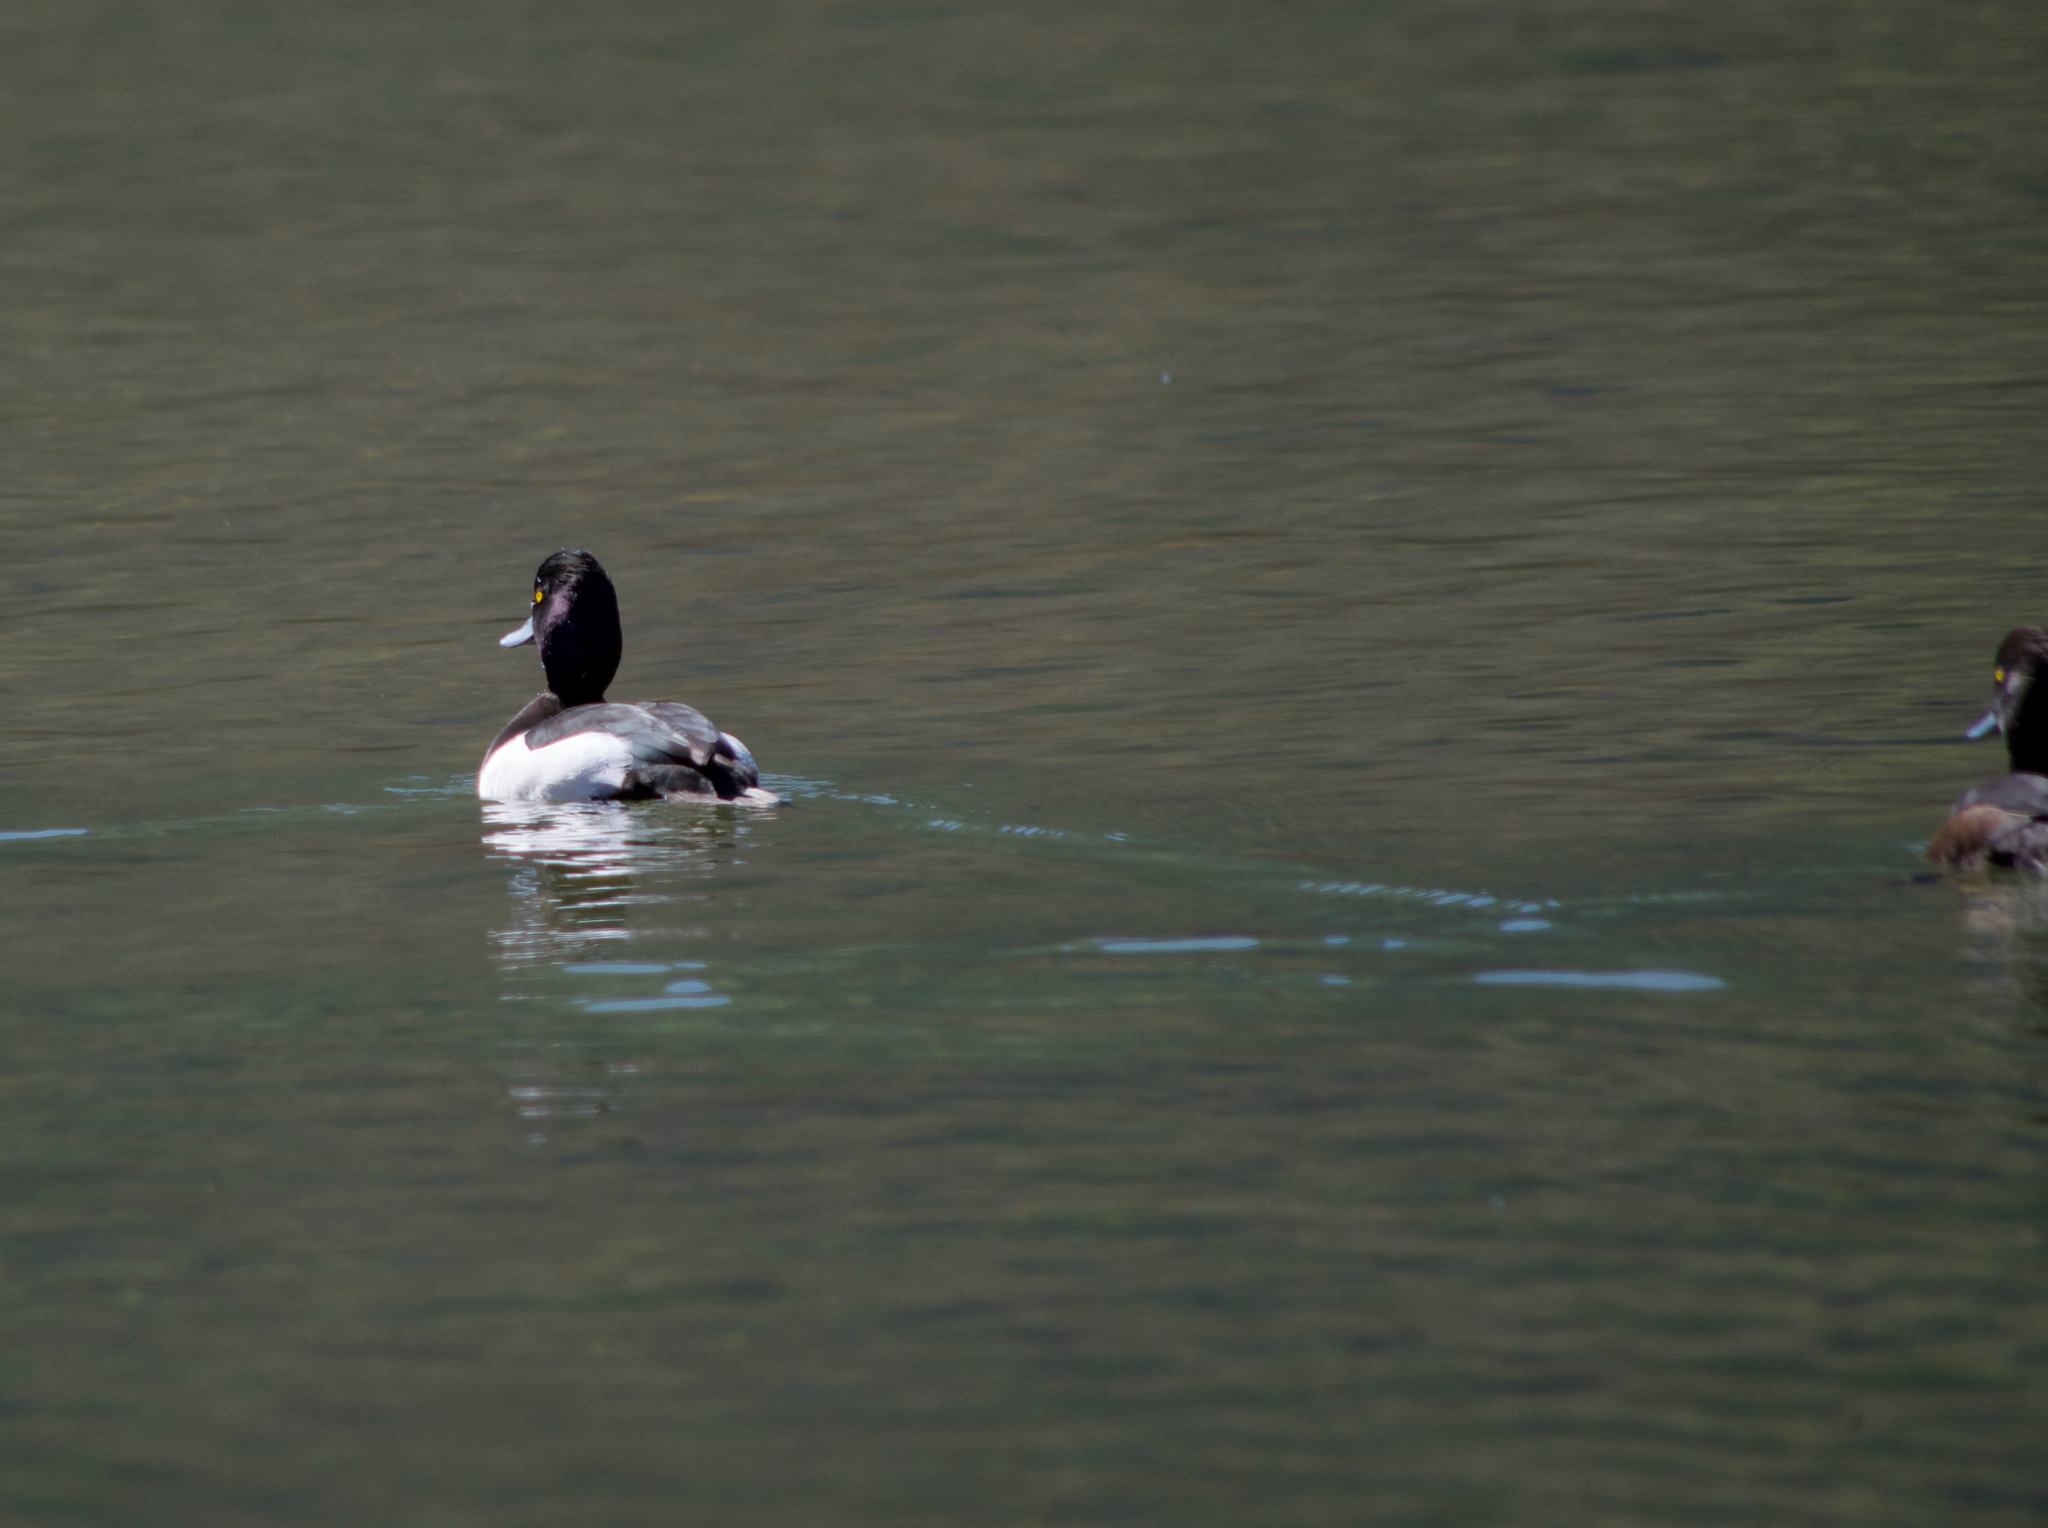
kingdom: Animalia
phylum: Chordata
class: Aves
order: Anseriformes
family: Anatidae
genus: Aythya
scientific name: Aythya fuligula
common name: Tufted duck
